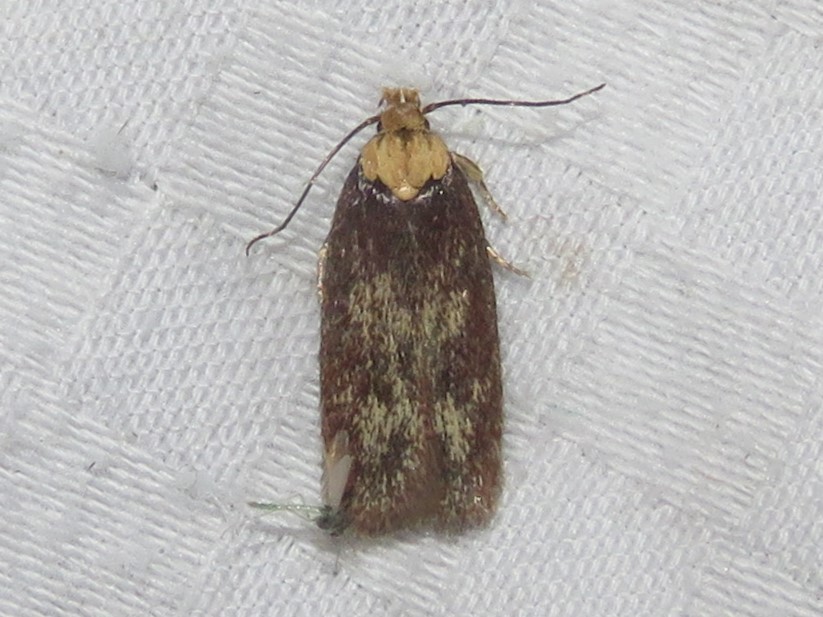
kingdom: Animalia
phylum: Arthropoda
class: Insecta
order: Lepidoptera
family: Depressariidae
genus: Depressaria
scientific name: Depressaria depressana
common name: Lost flat-body
